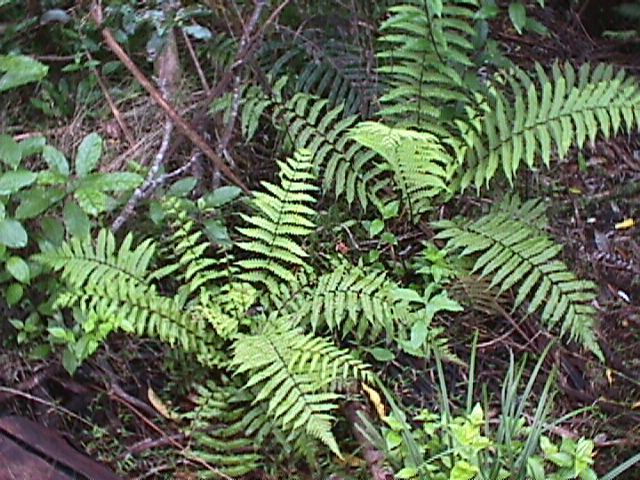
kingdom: Plantae
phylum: Tracheophyta
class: Polypodiopsida
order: Polypodiales
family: Thelypteridaceae
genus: Pakau
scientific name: Pakau pennigera
